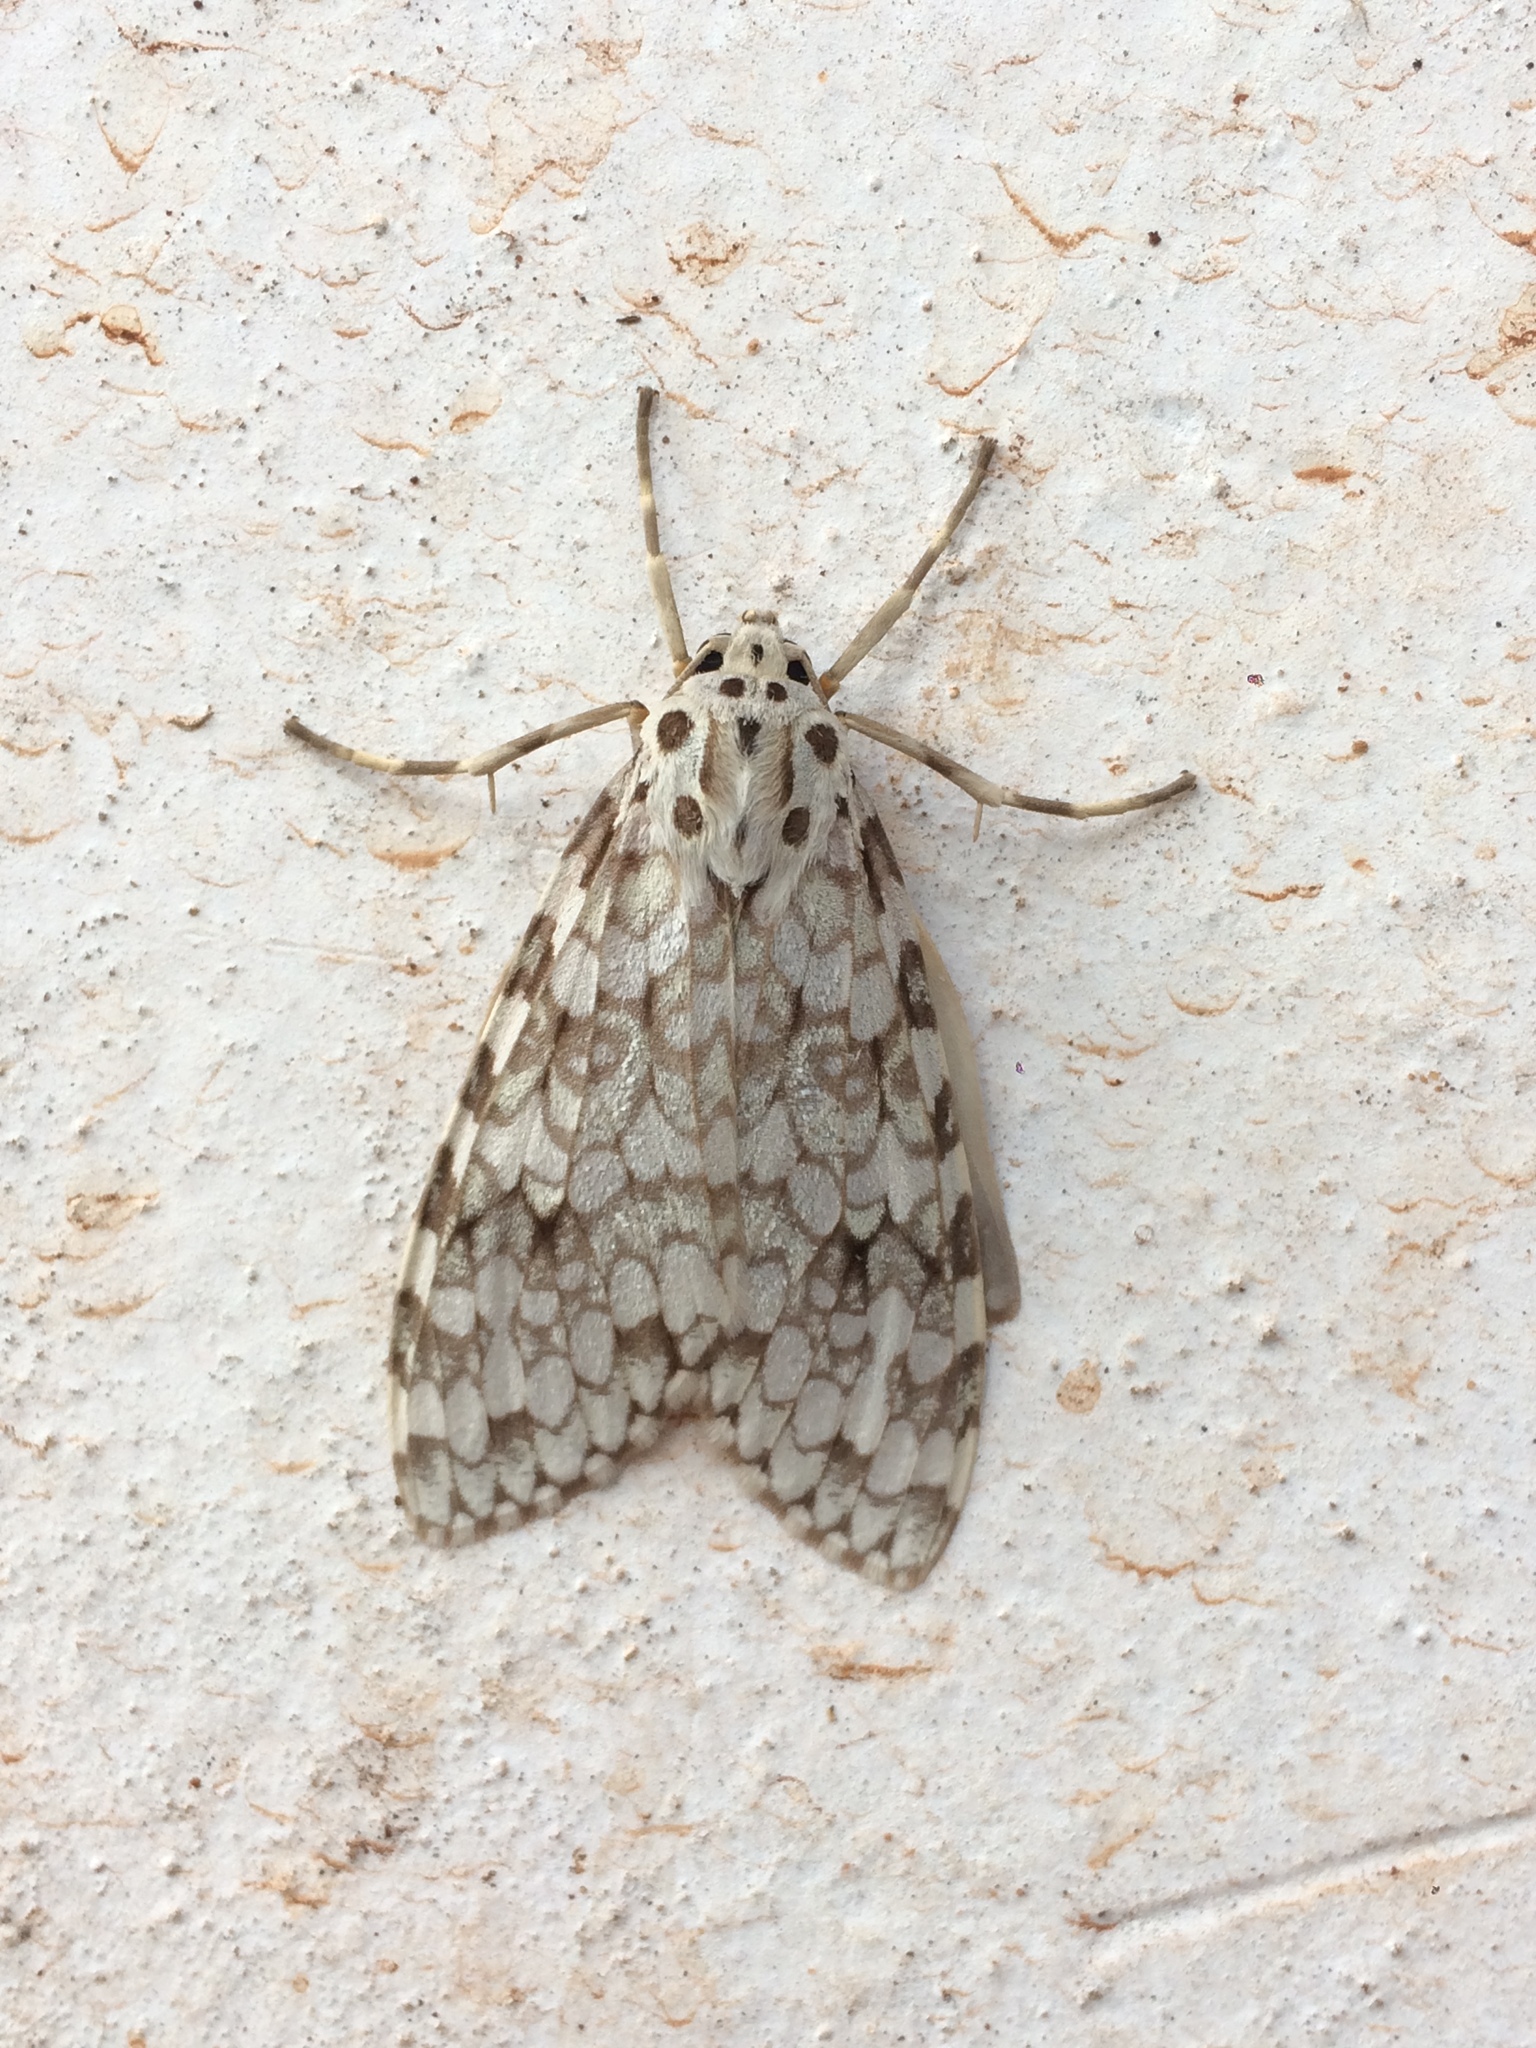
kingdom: Animalia
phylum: Arthropoda
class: Insecta
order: Lepidoptera
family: Erebidae
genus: Carales
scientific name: Carales astur
